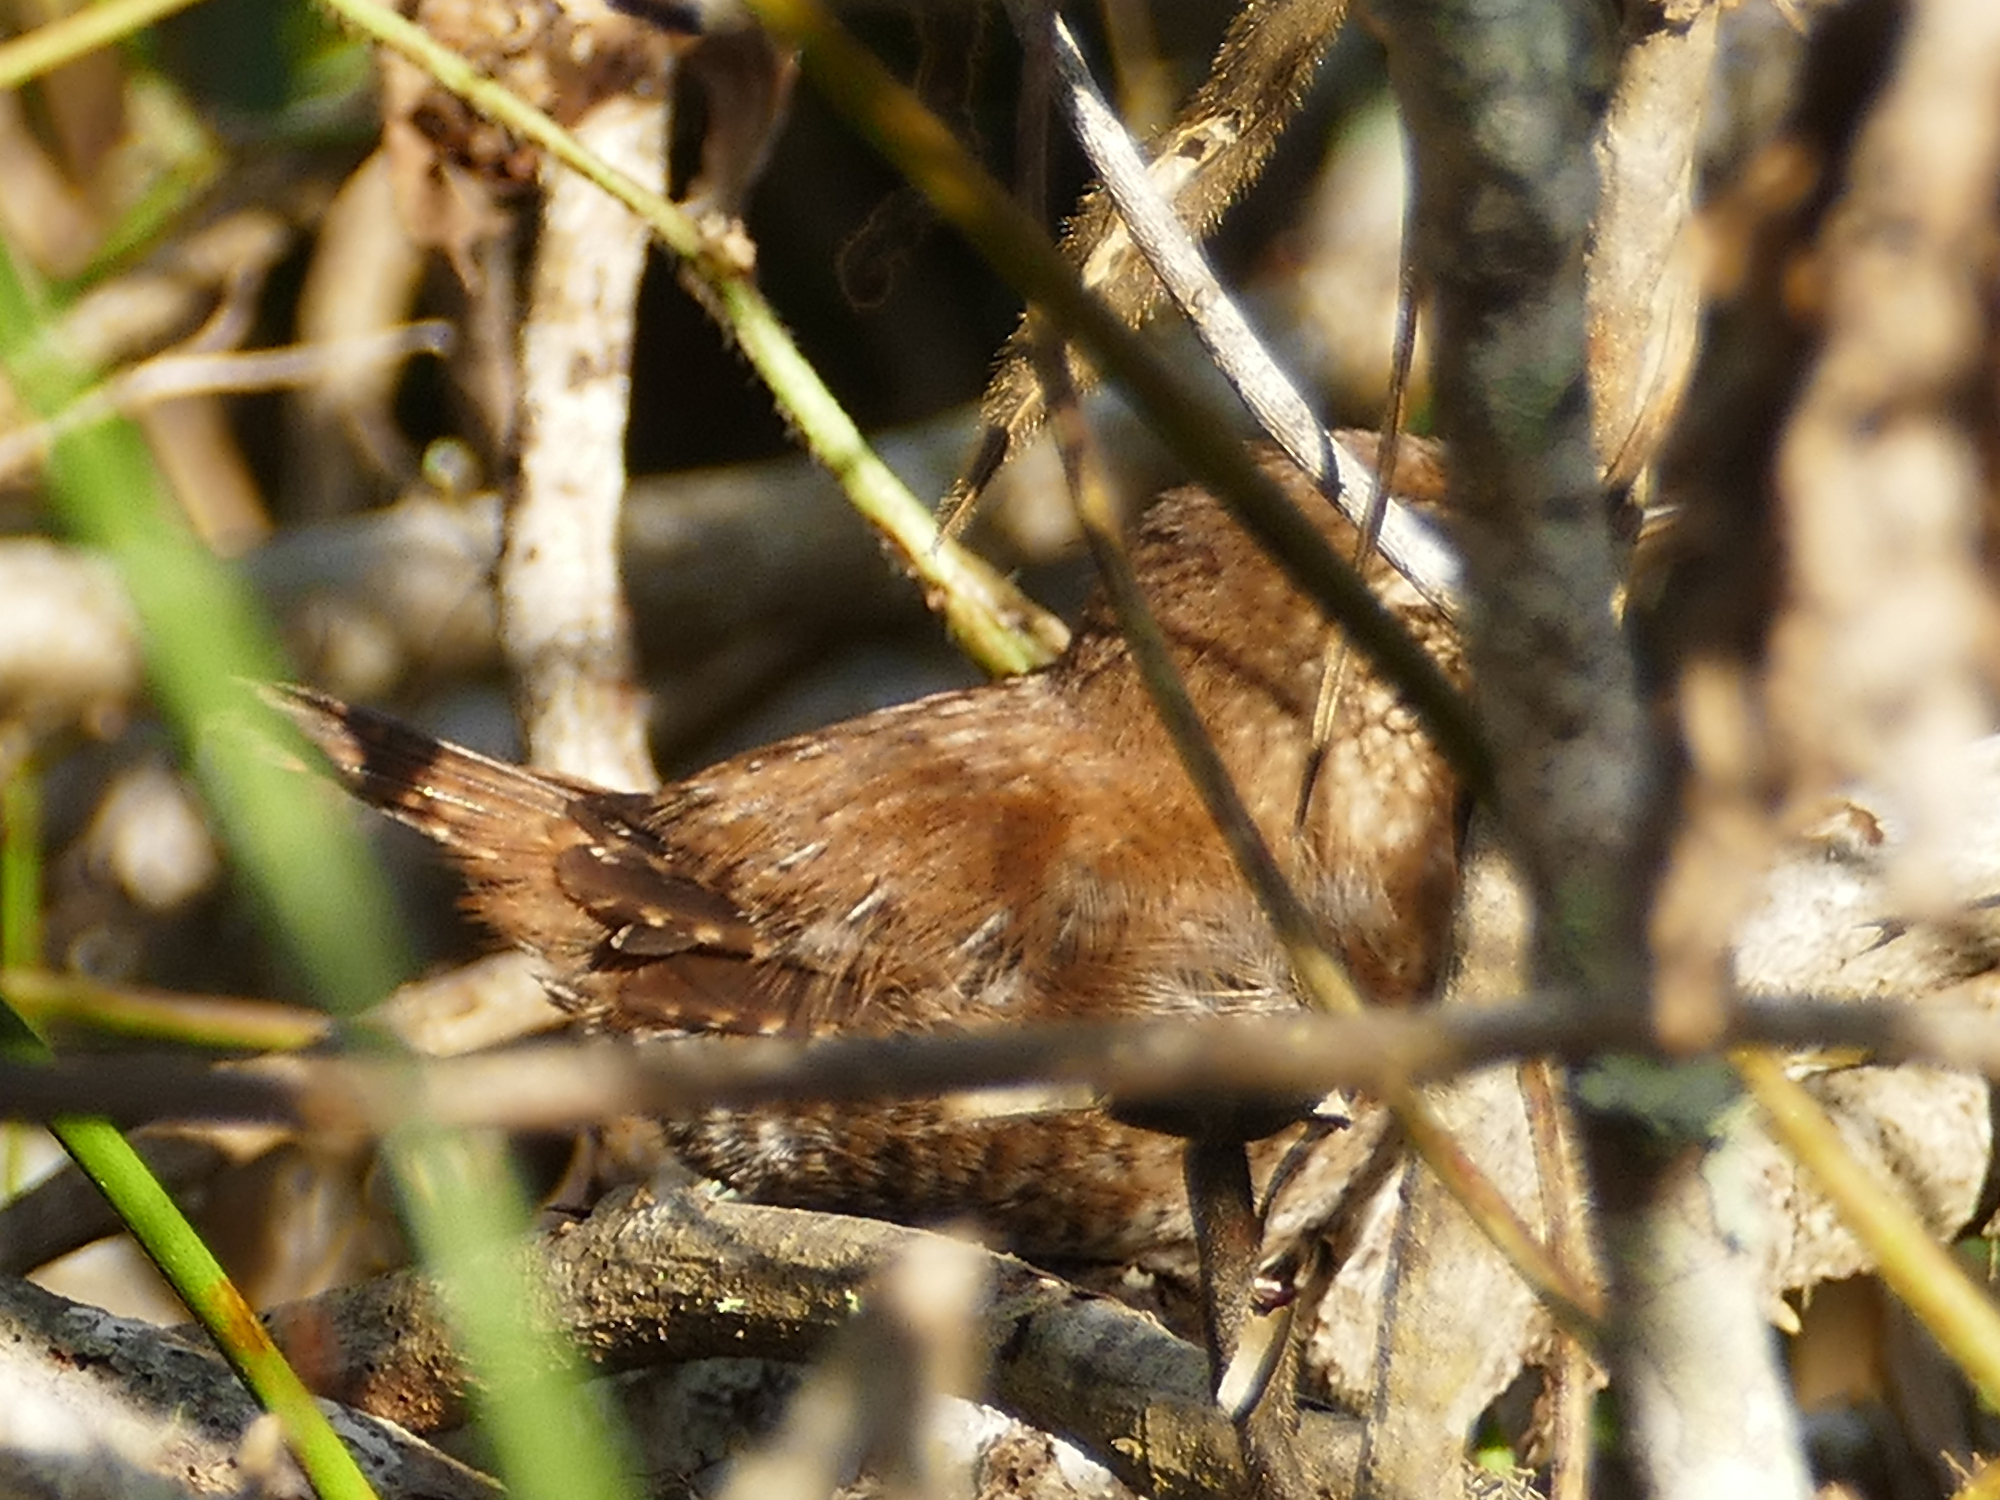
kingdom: Animalia
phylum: Chordata
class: Aves
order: Passeriformes
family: Troglodytidae
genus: Troglodytes
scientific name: Troglodytes hiemalis
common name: Winter wren
